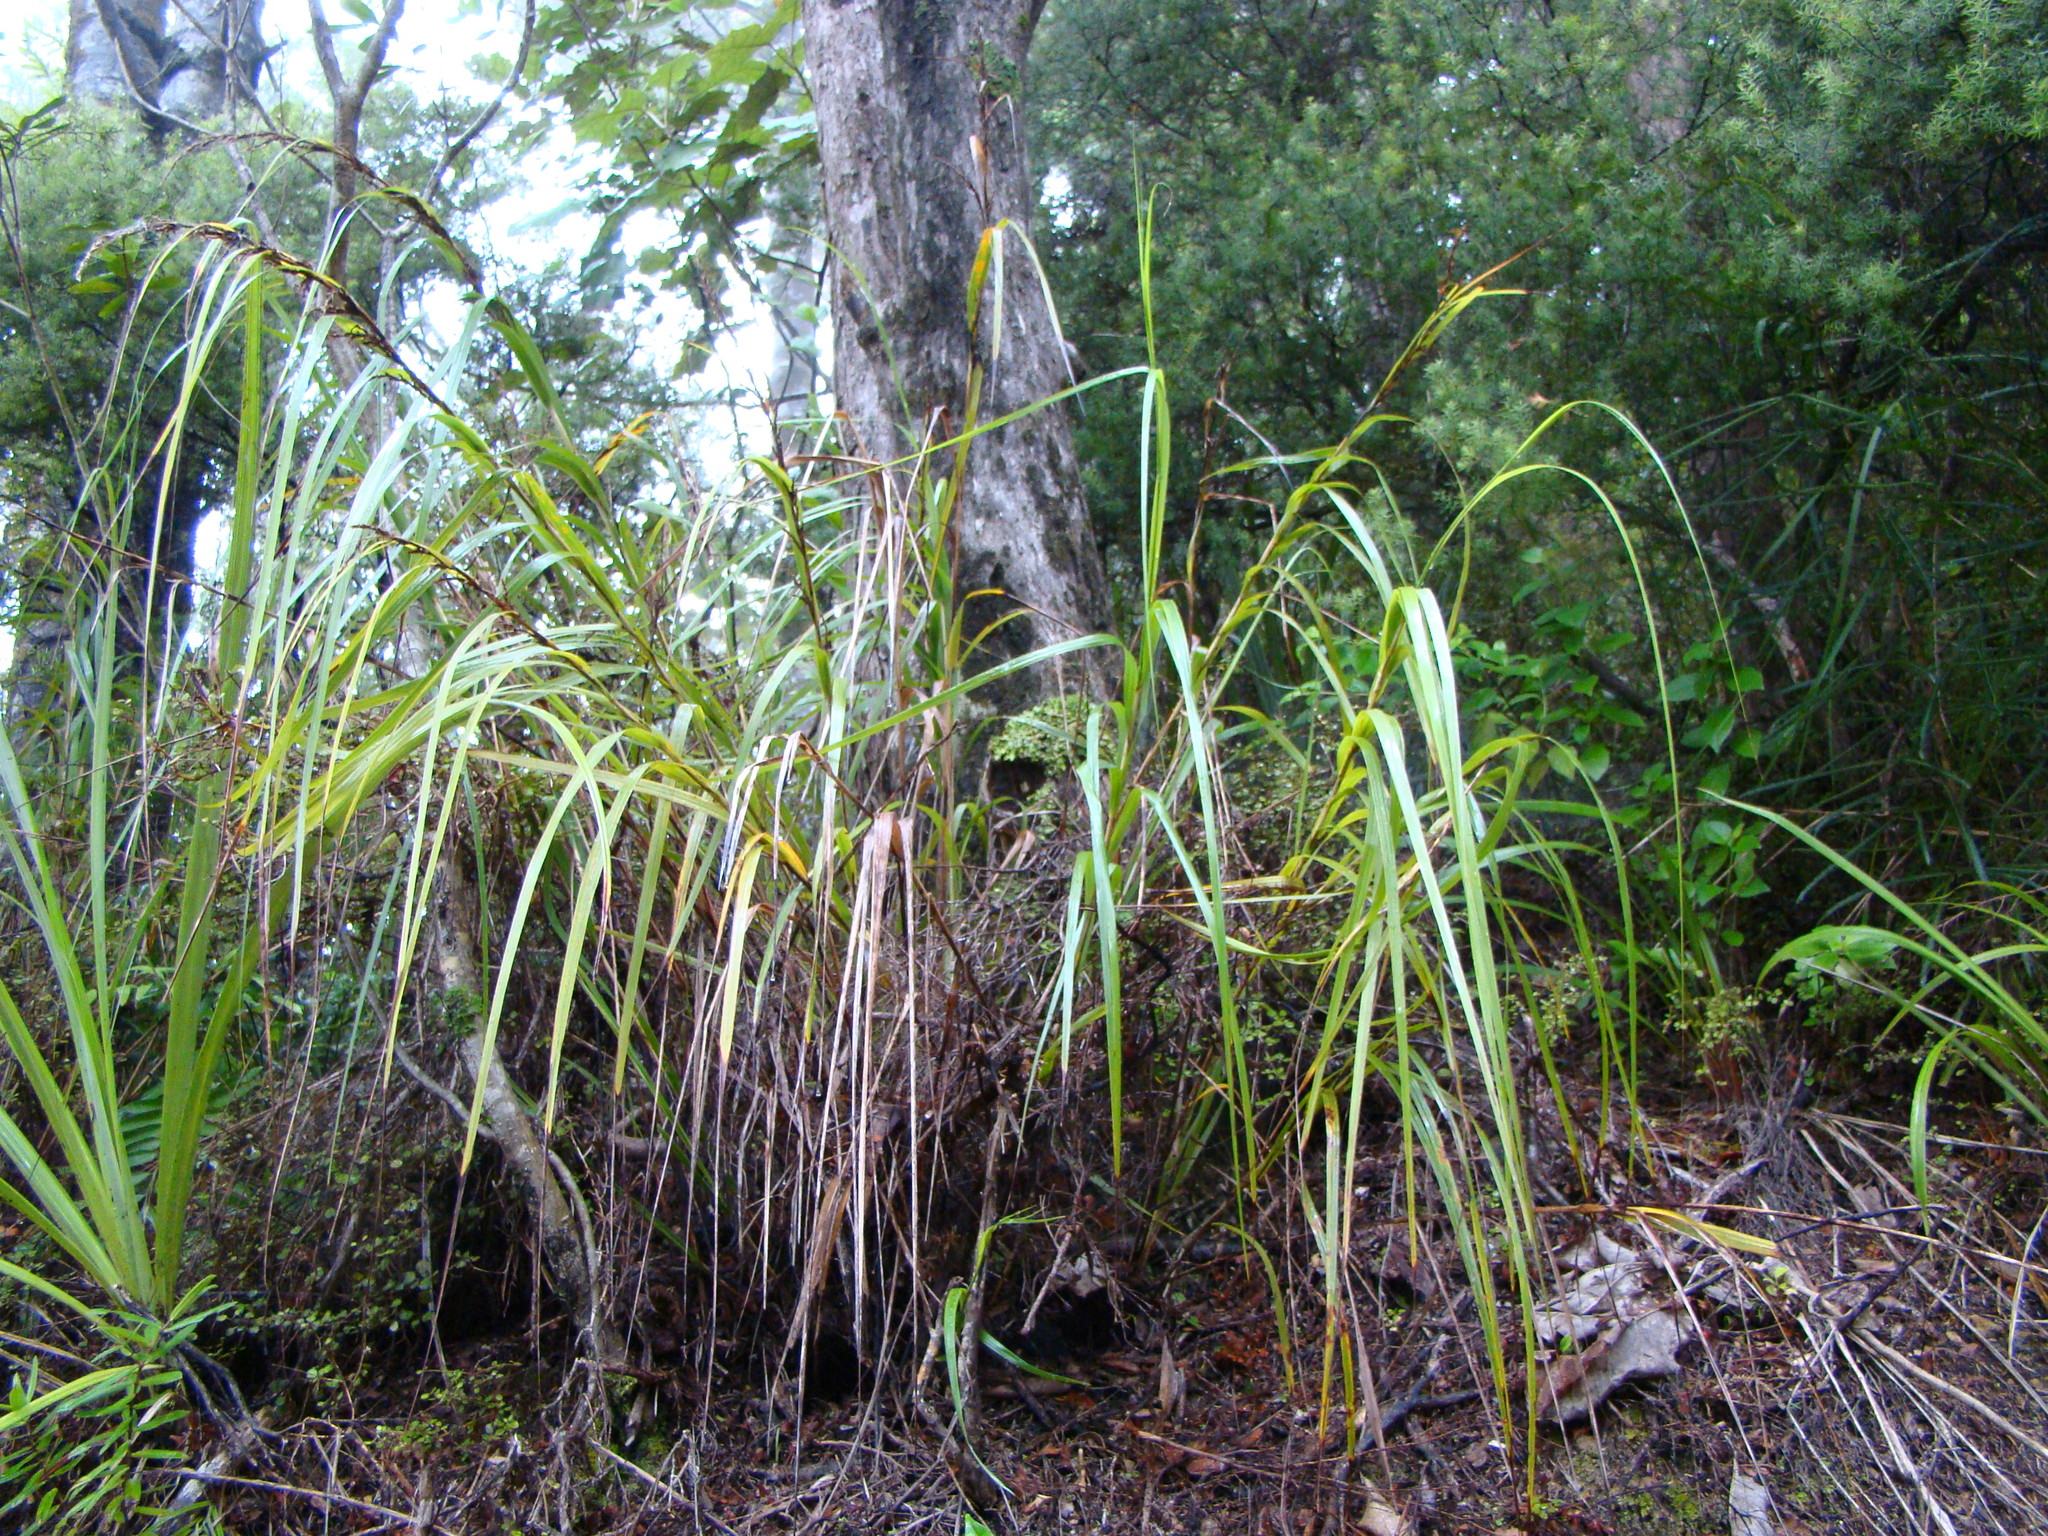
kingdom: Plantae
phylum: Tracheophyta
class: Liliopsida
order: Poales
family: Cyperaceae
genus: Gahnia
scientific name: Gahnia lacera
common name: Sawsedge
